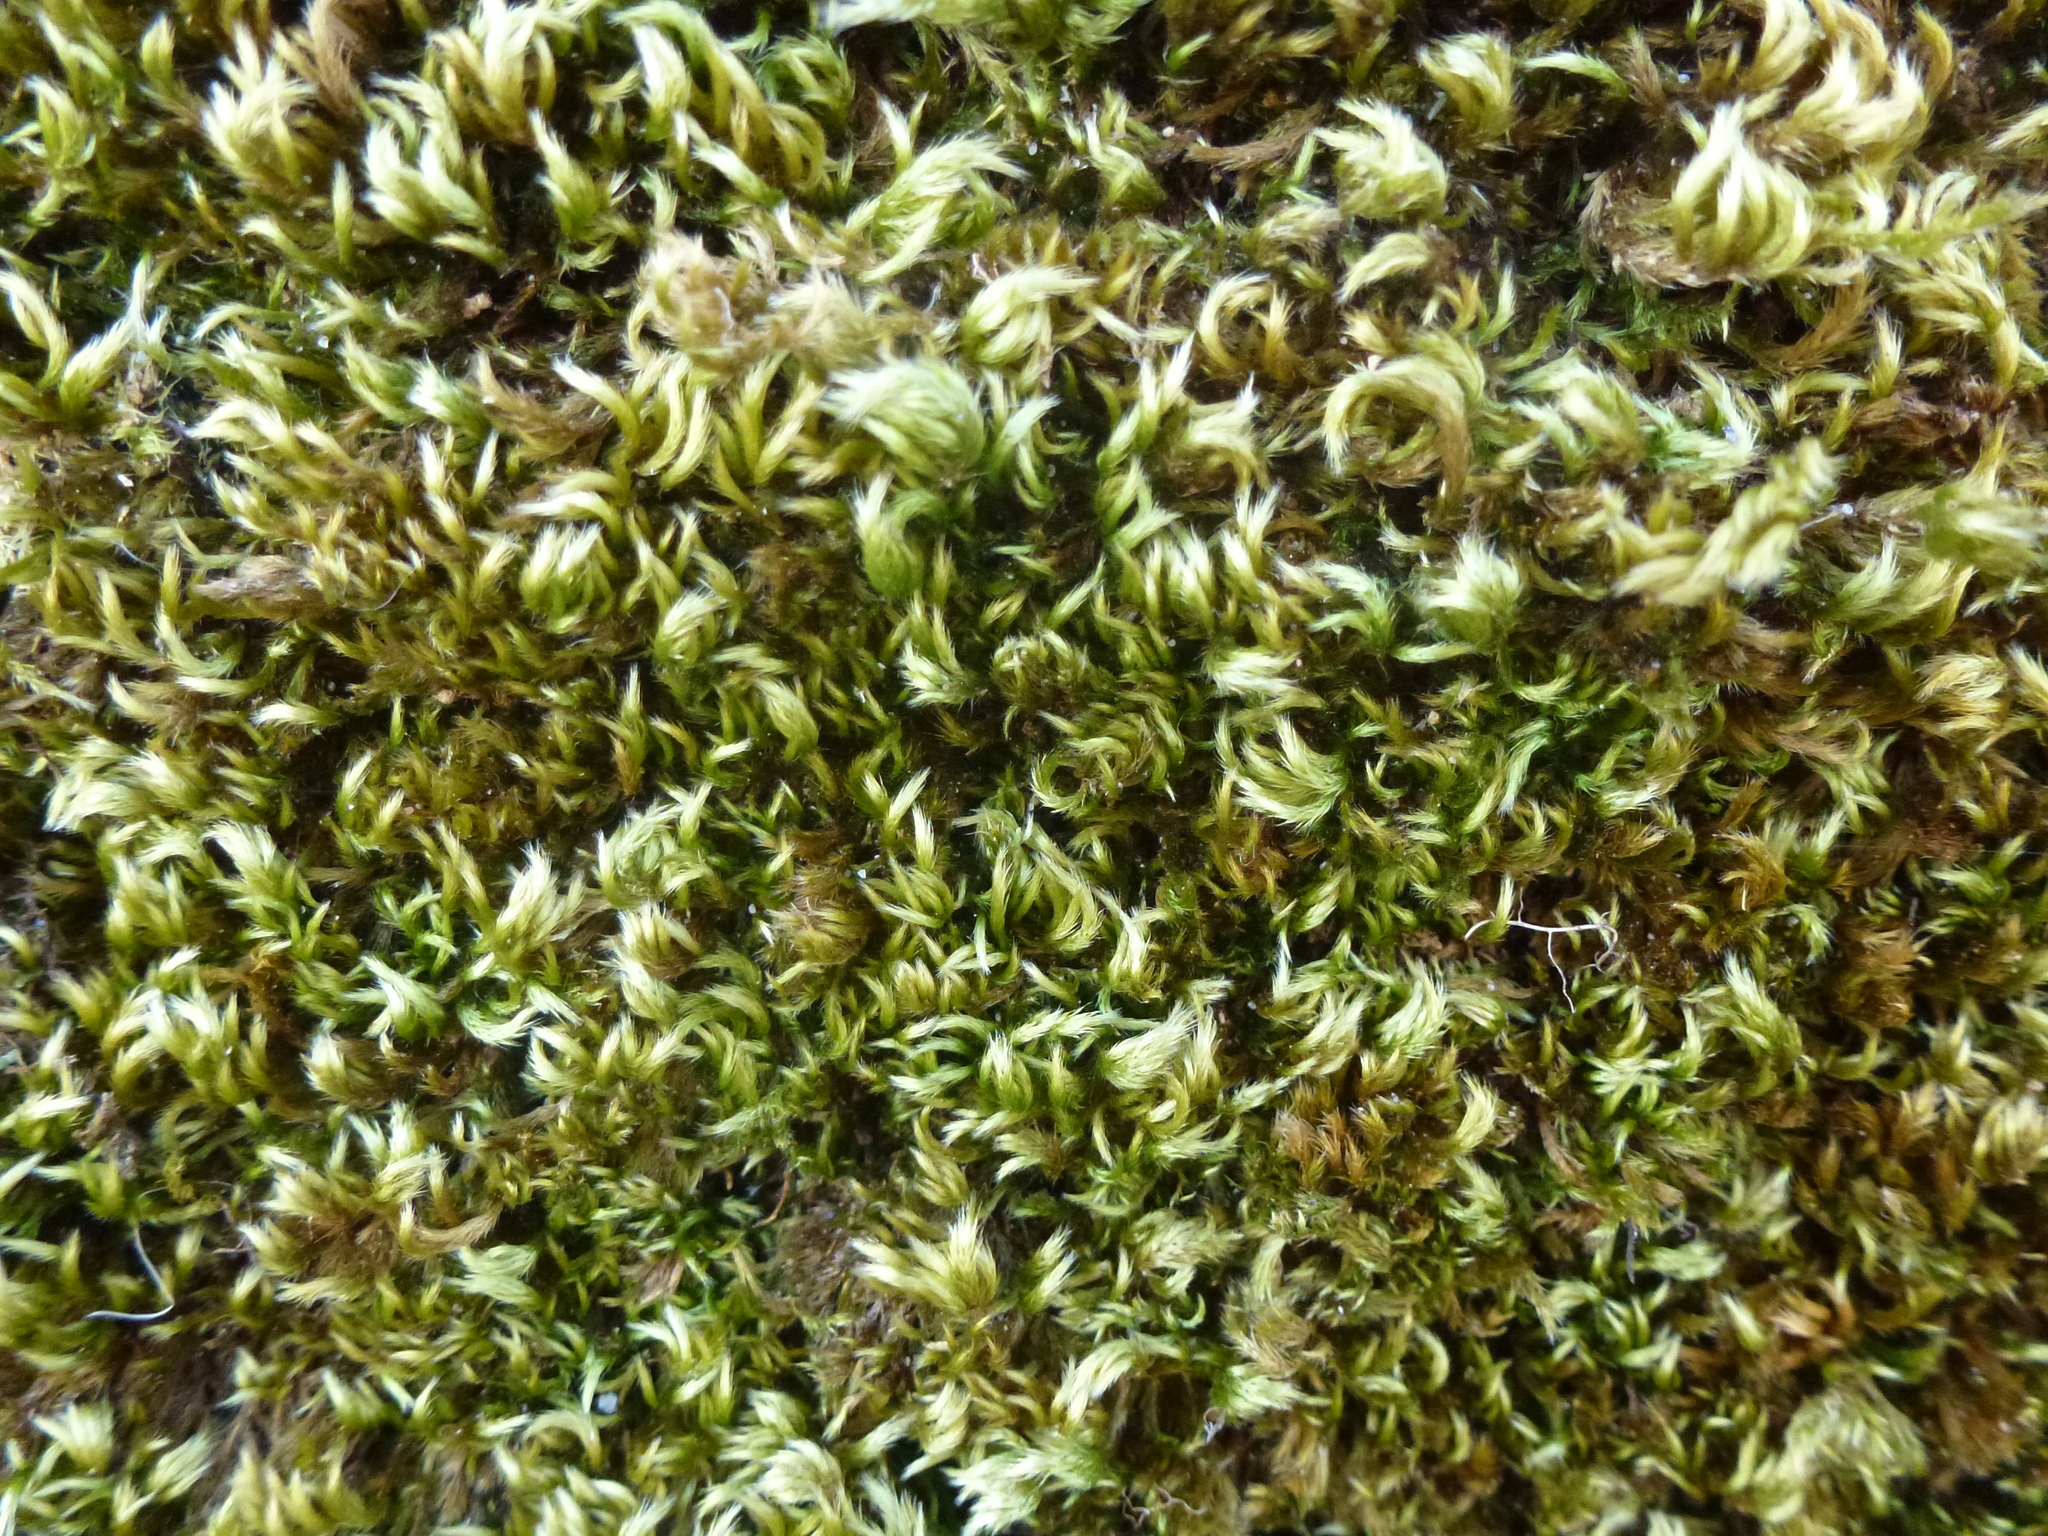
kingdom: Plantae
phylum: Bryophyta
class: Bryopsida
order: Hypnales
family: Brachytheciaceae
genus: Homalothecium
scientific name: Homalothecium sericeum
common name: Silky wall feather-moss
